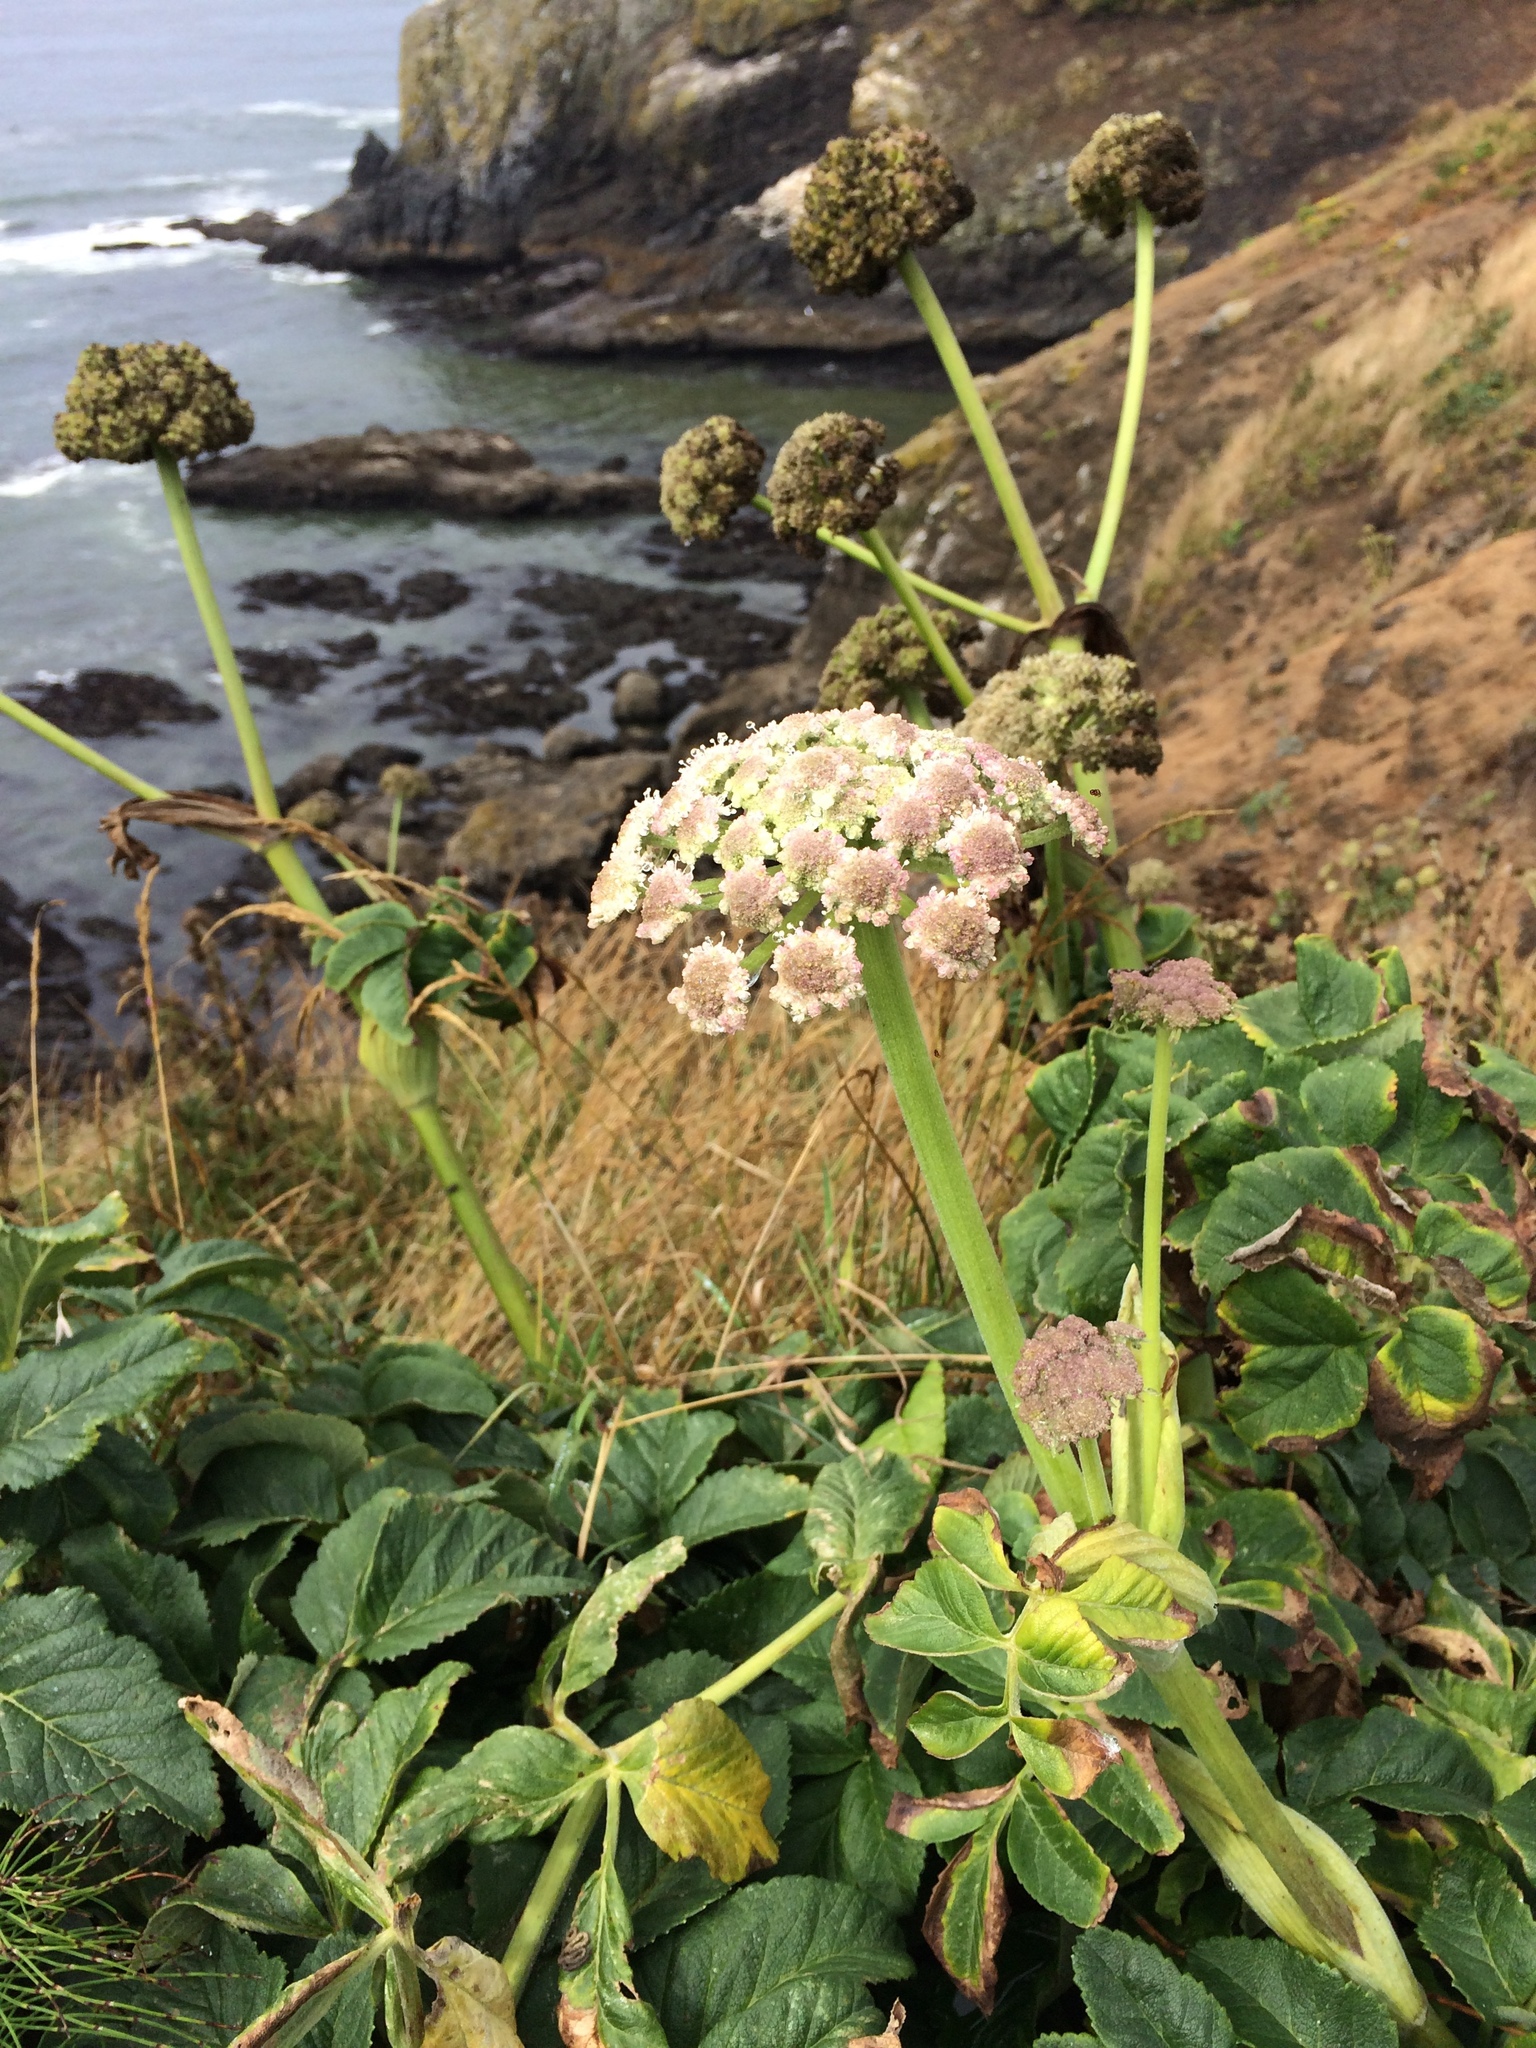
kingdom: Plantae
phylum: Tracheophyta
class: Magnoliopsida
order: Apiales
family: Apiaceae
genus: Angelica
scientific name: Angelica hendersonii
